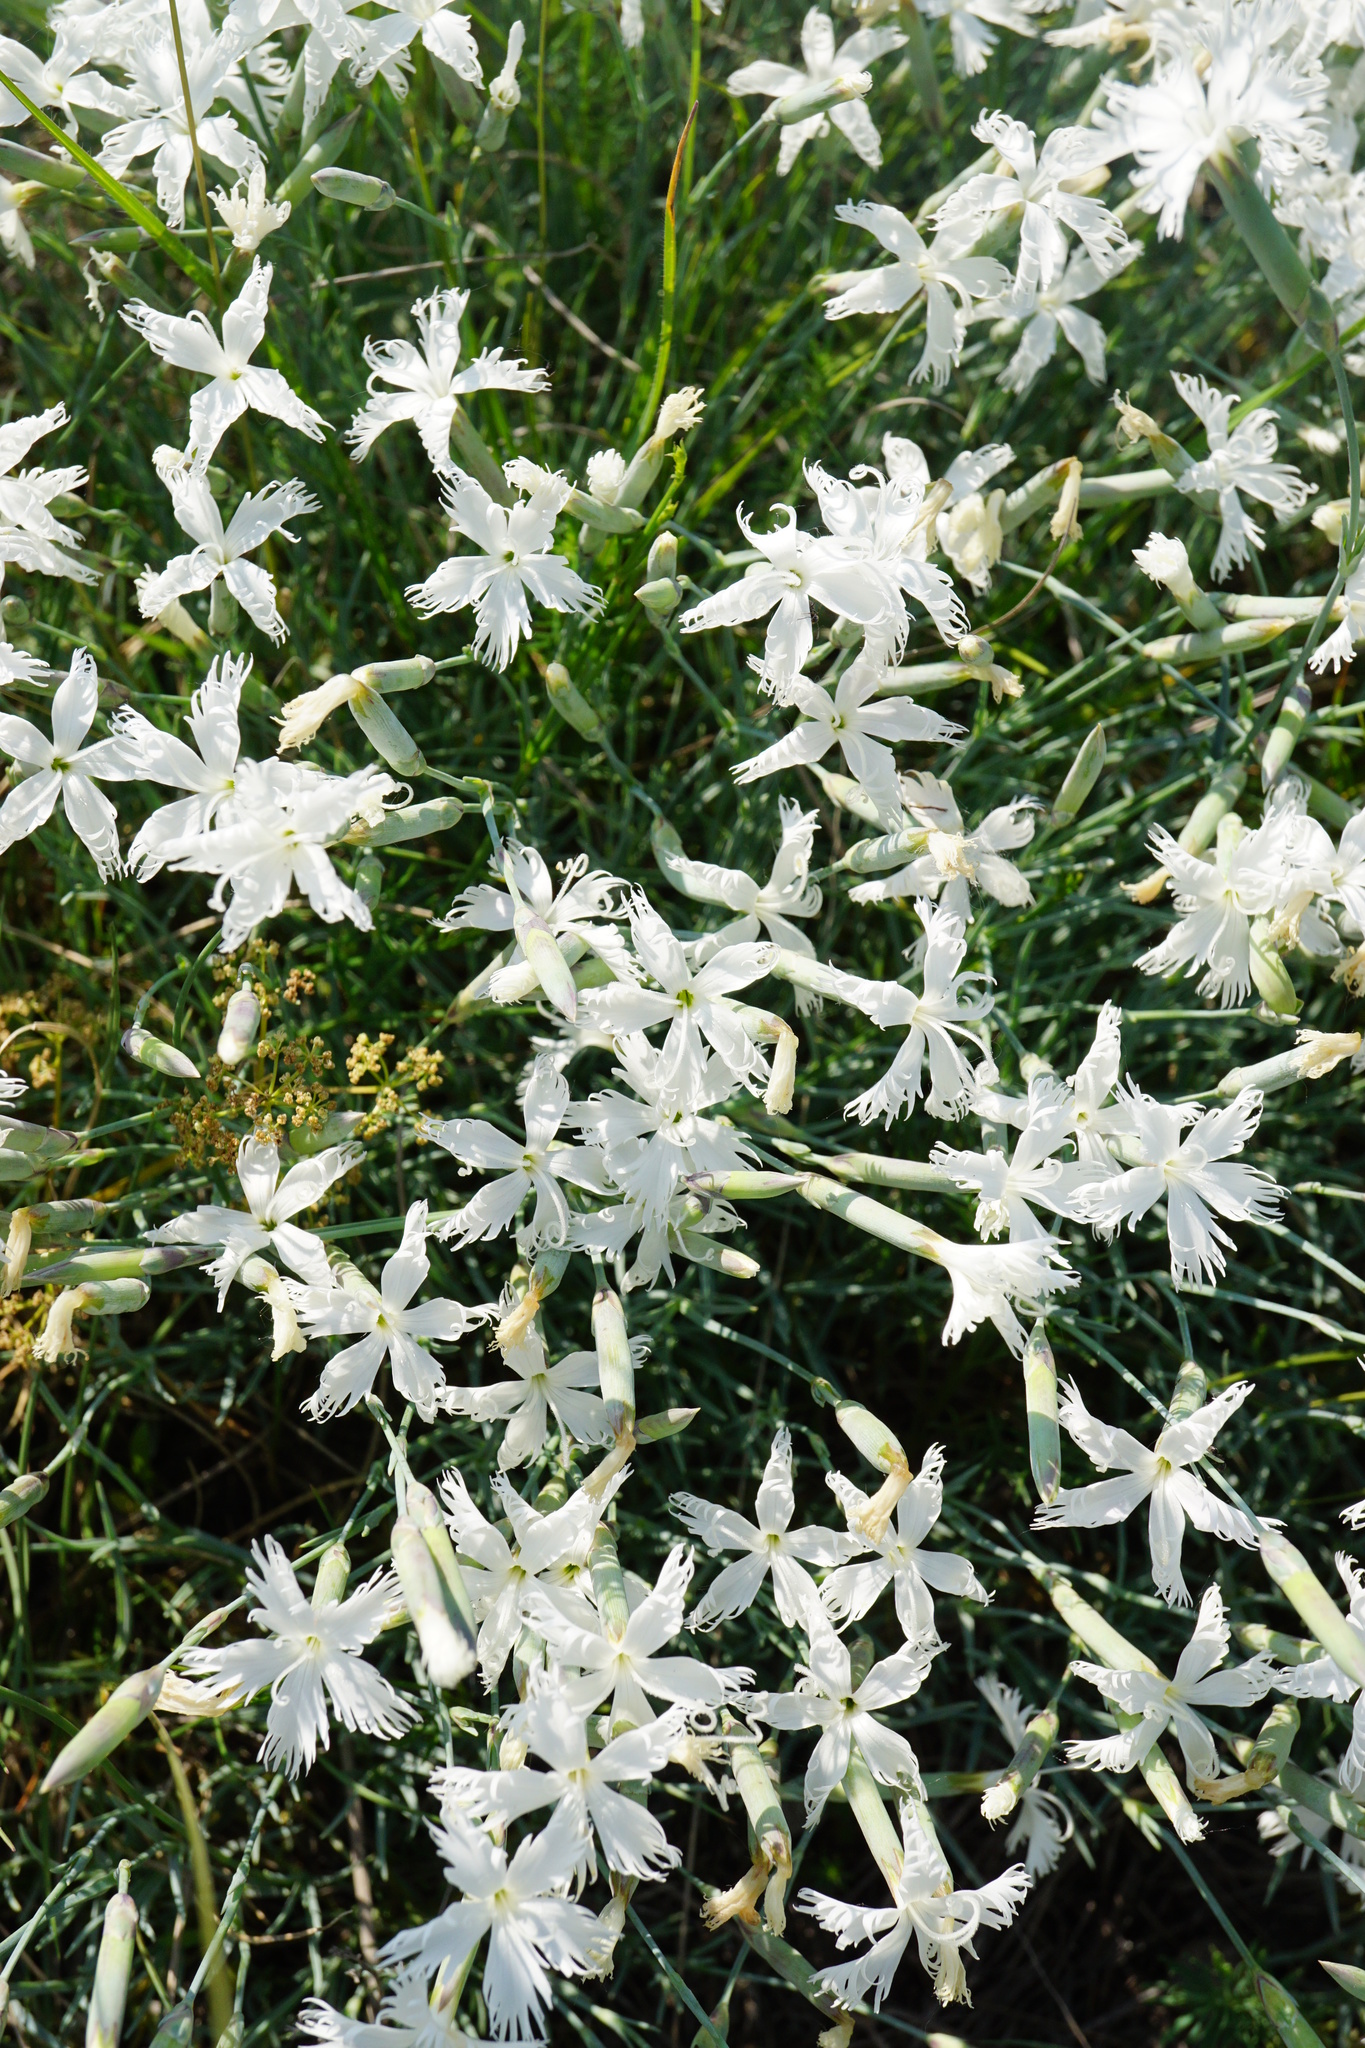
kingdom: Plantae
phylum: Tracheophyta
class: Magnoliopsida
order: Caryophyllales
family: Caryophyllaceae
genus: Dianthus
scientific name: Dianthus praecox
